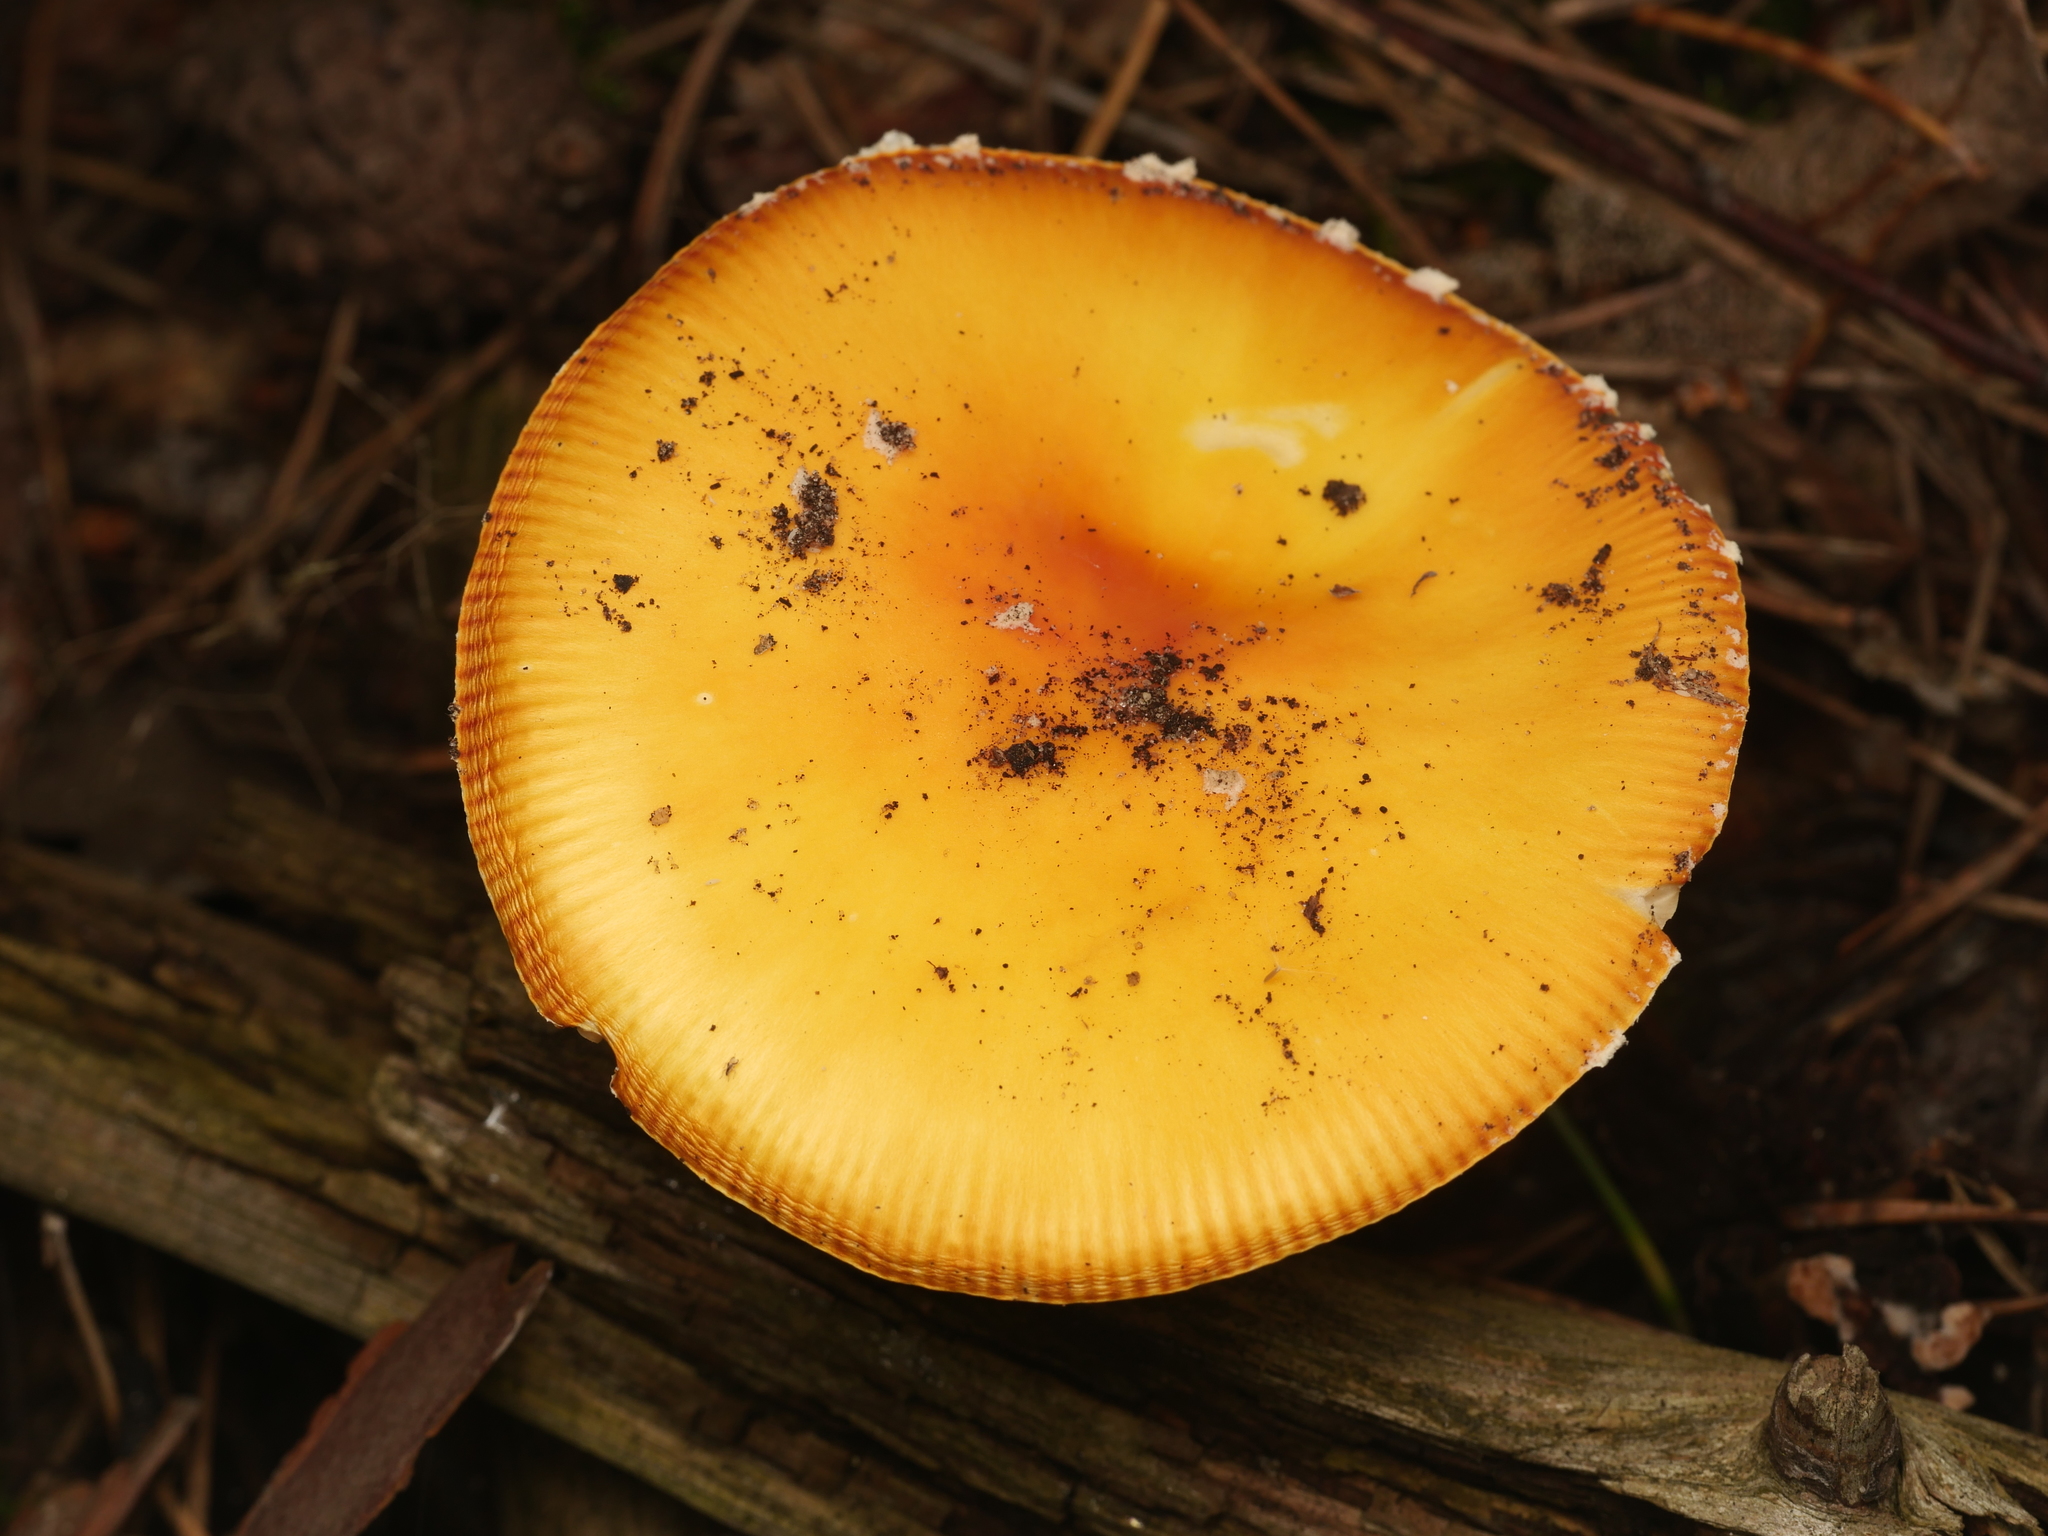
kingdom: Fungi
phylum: Basidiomycota
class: Agaricomycetes
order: Agaricales
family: Amanitaceae
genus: Amanita
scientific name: Amanita muscaria
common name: Fly agaric
